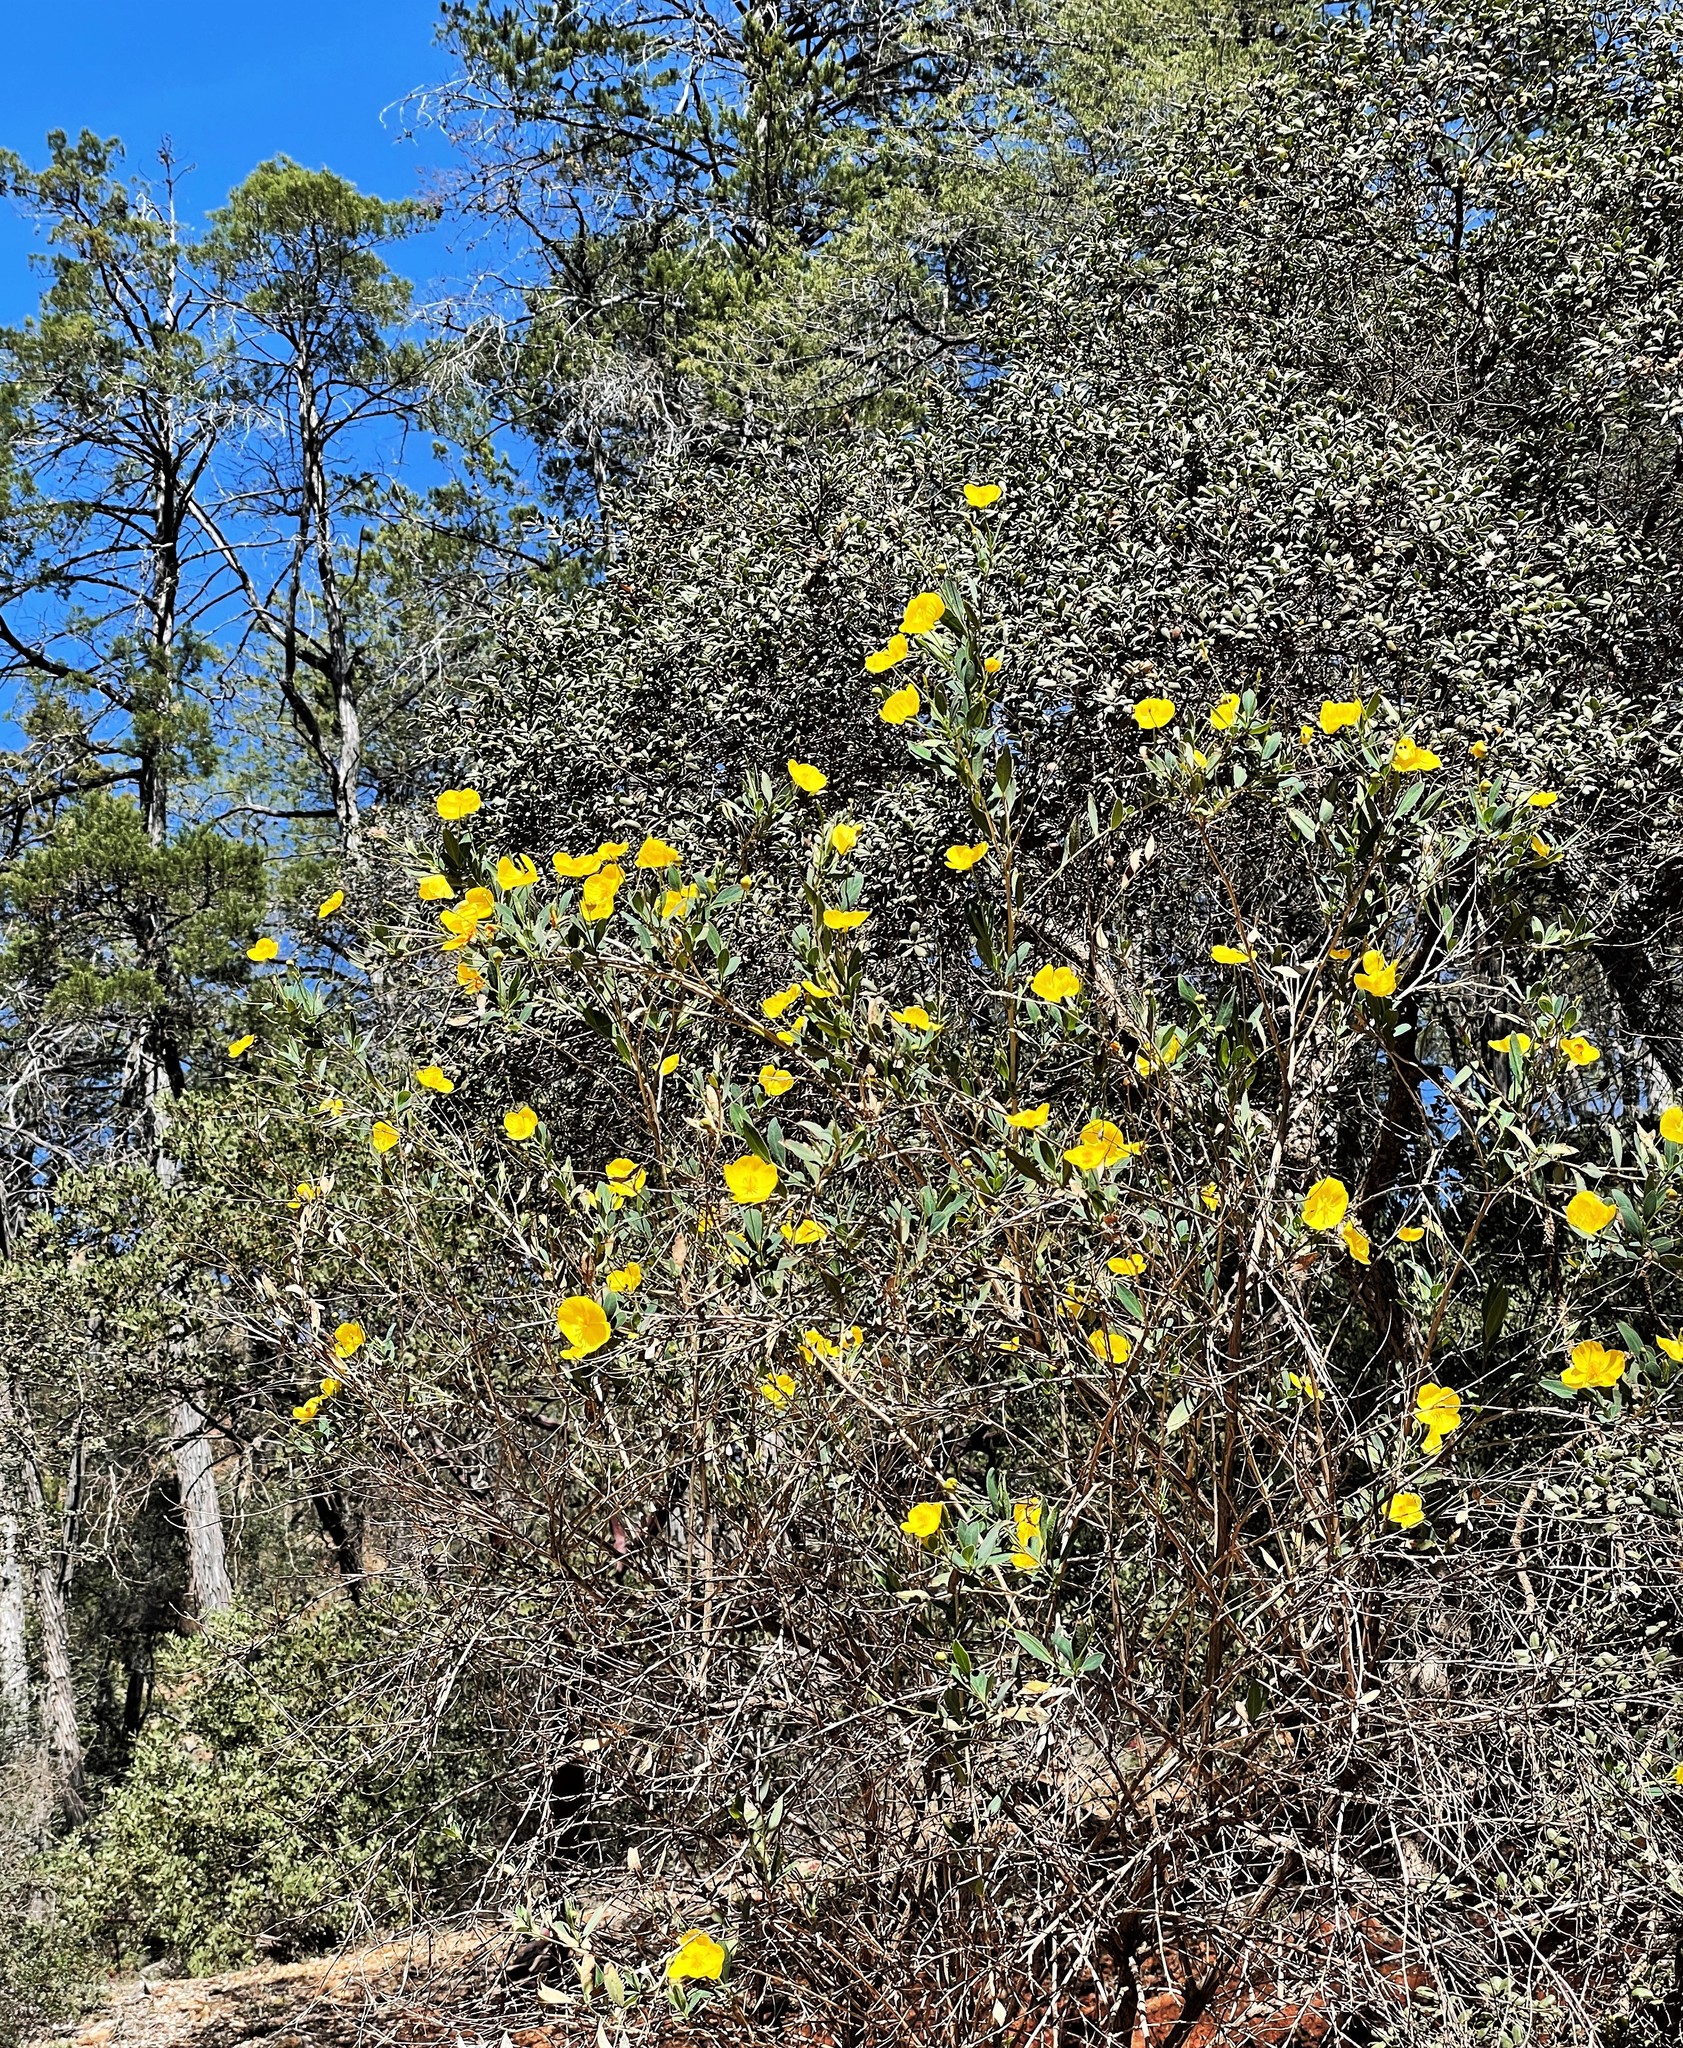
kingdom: Plantae
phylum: Tracheophyta
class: Magnoliopsida
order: Ranunculales
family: Papaveraceae
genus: Dendromecon
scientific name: Dendromecon rigida
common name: Tree poppy
